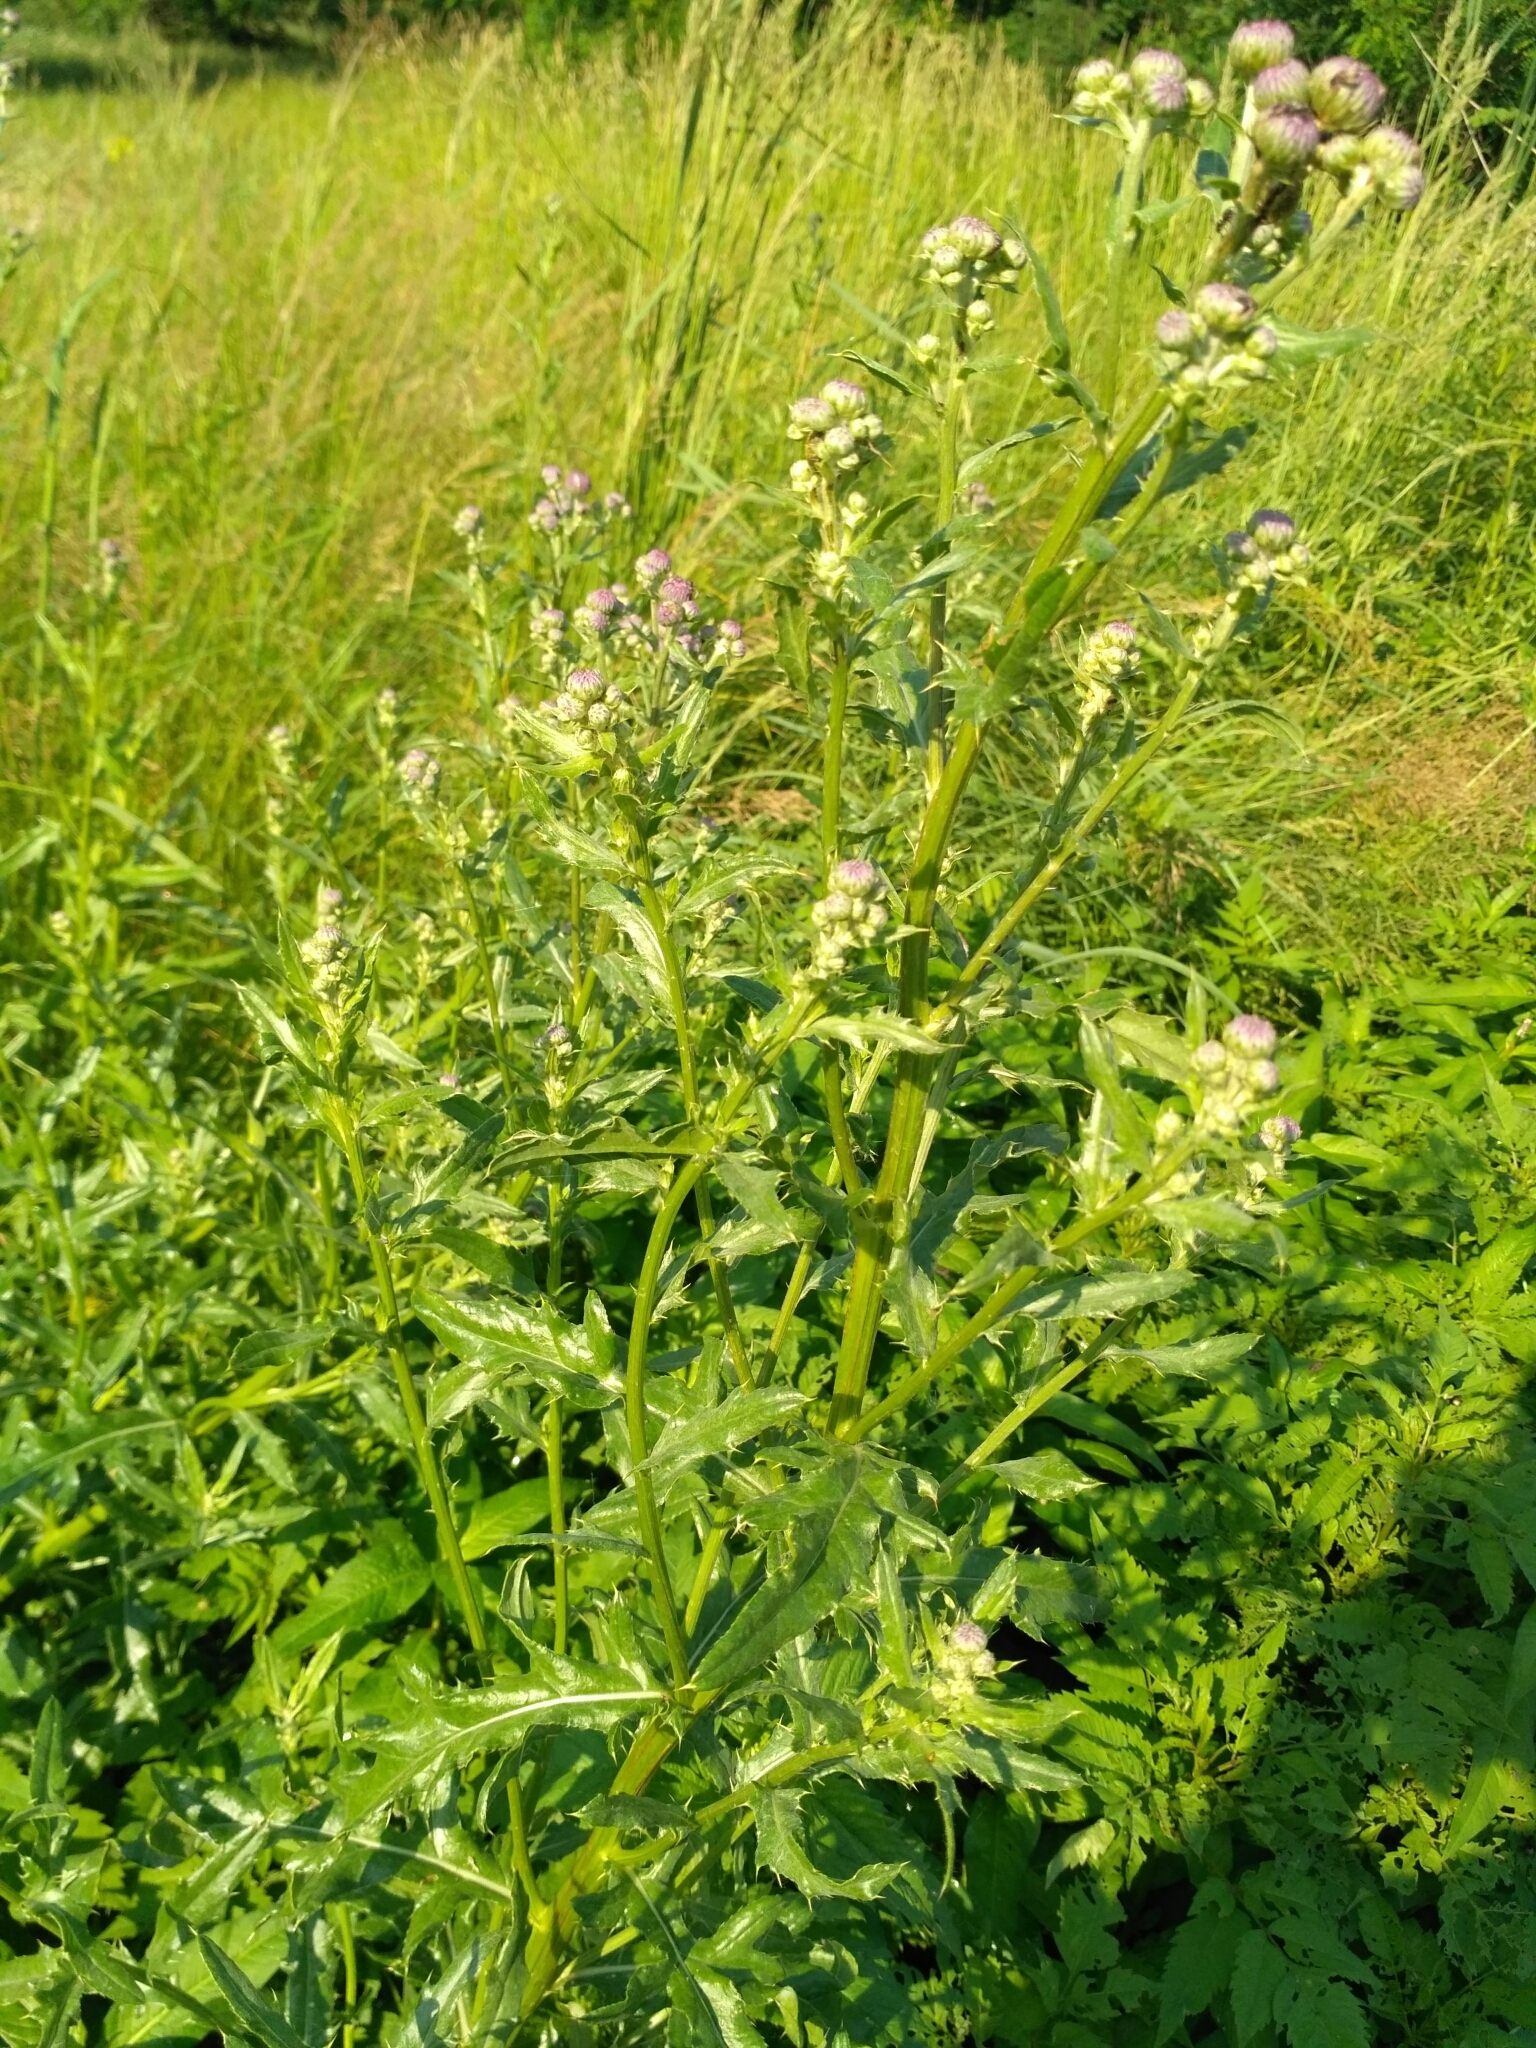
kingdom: Plantae
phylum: Tracheophyta
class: Magnoliopsida
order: Asterales
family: Asteraceae
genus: Cirsium
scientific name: Cirsium arvense
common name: Creeping thistle
